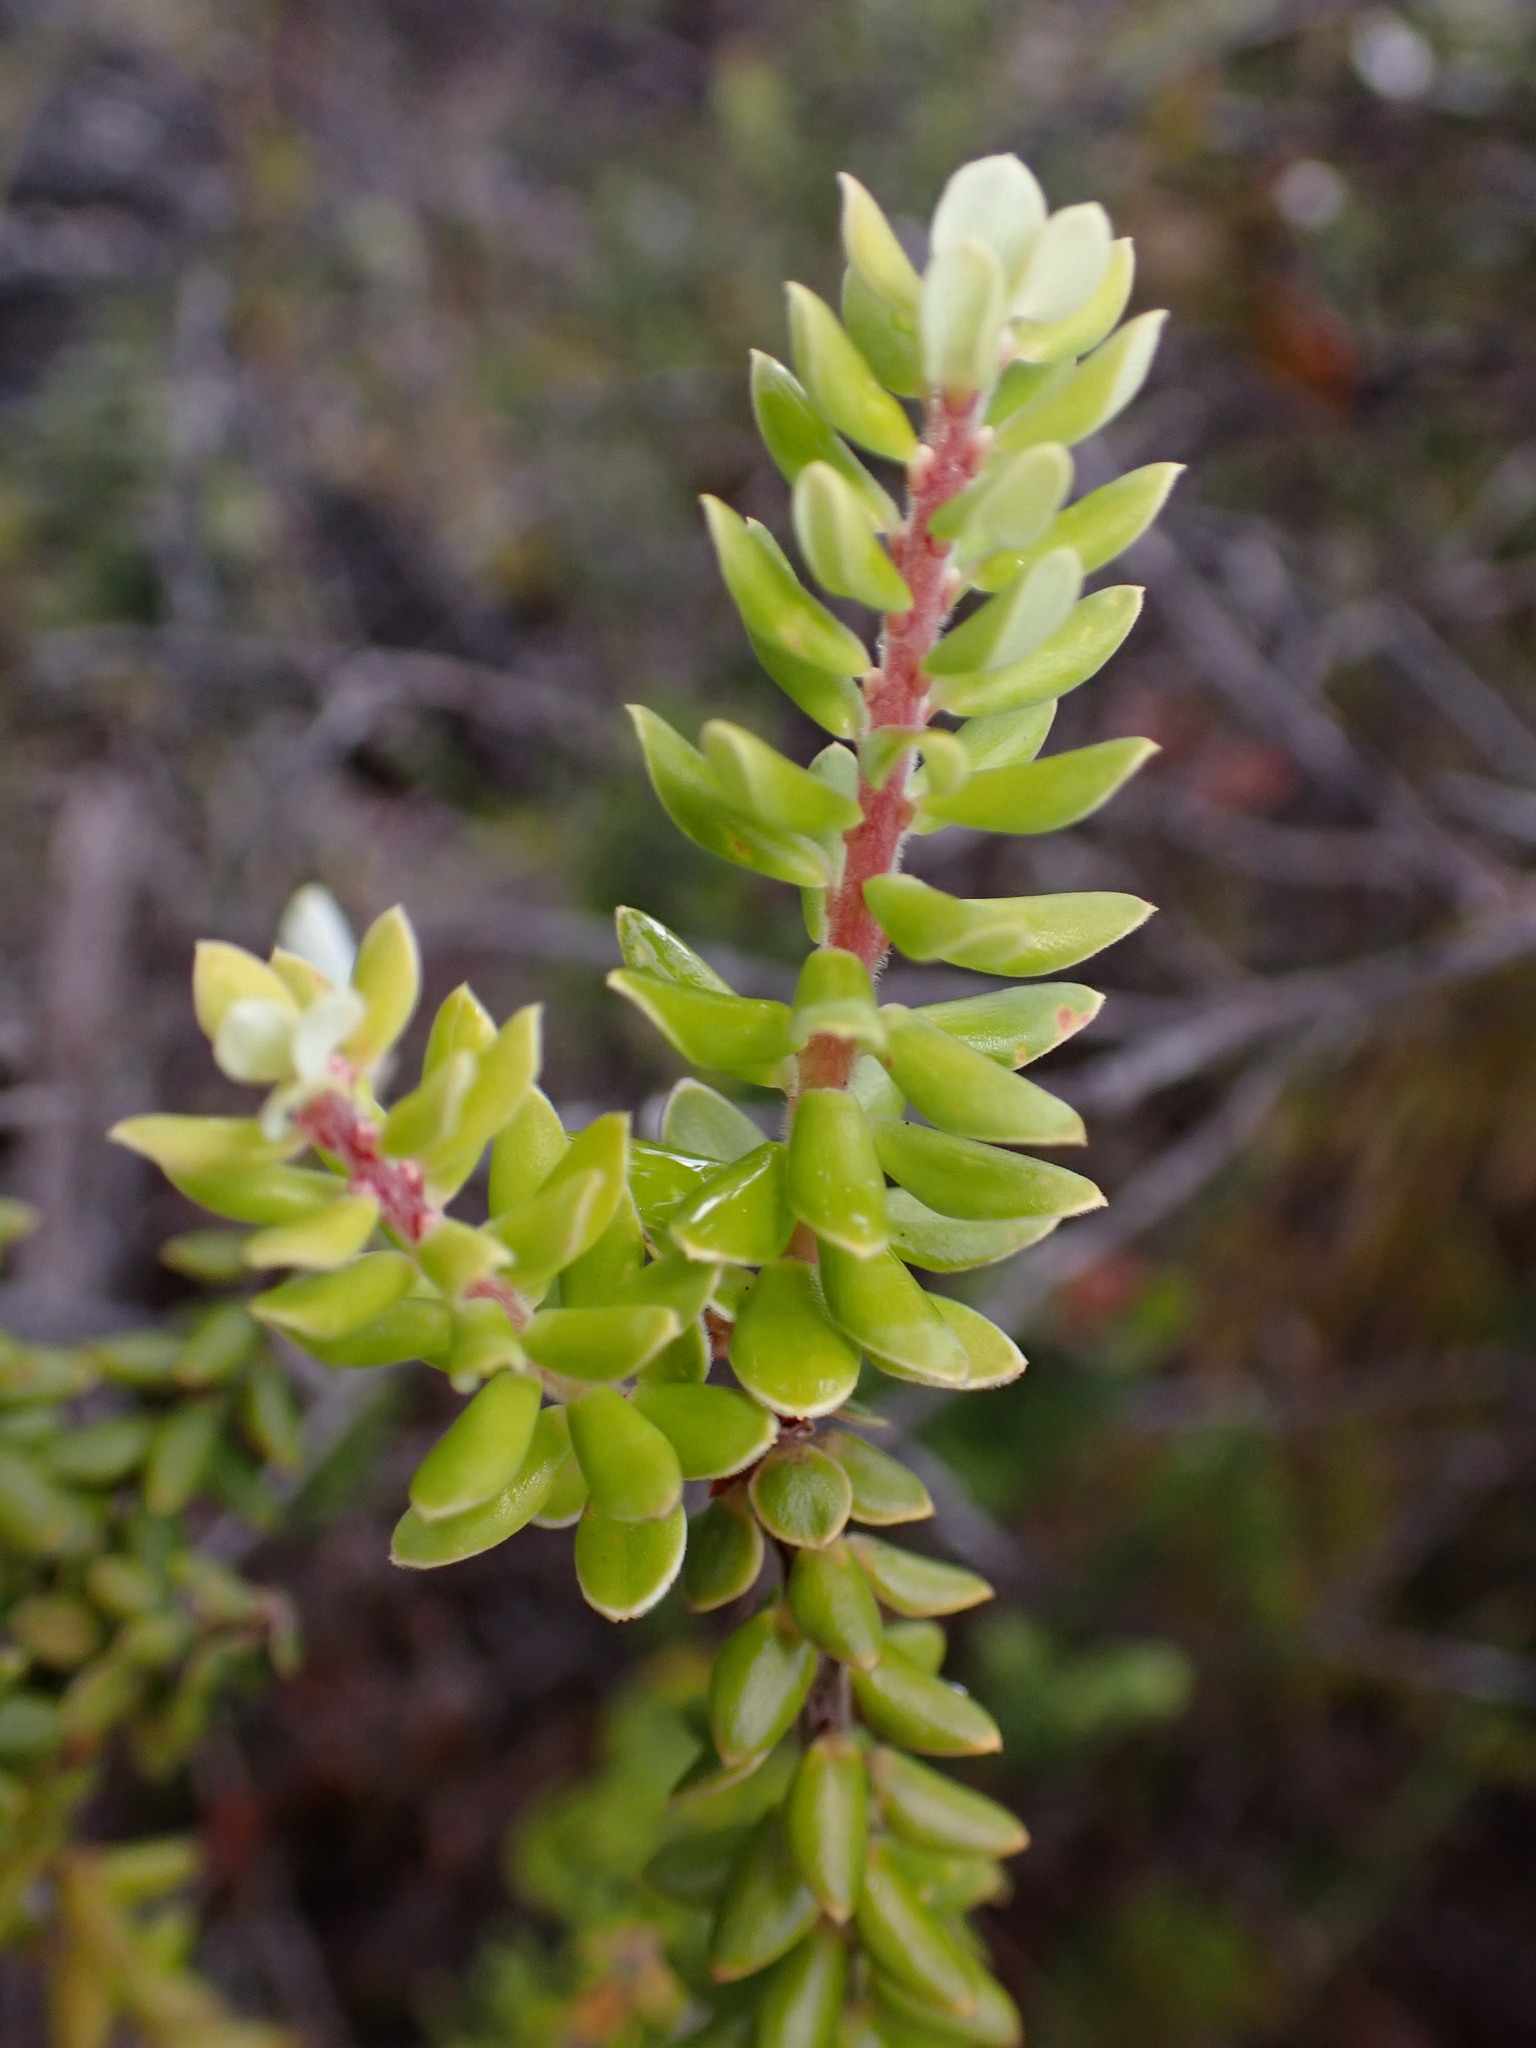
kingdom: Plantae
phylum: Tracheophyta
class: Magnoliopsida
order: Ericales
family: Ericaceae
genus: Leptecophylla
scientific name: Leptecophylla tameiameiae
